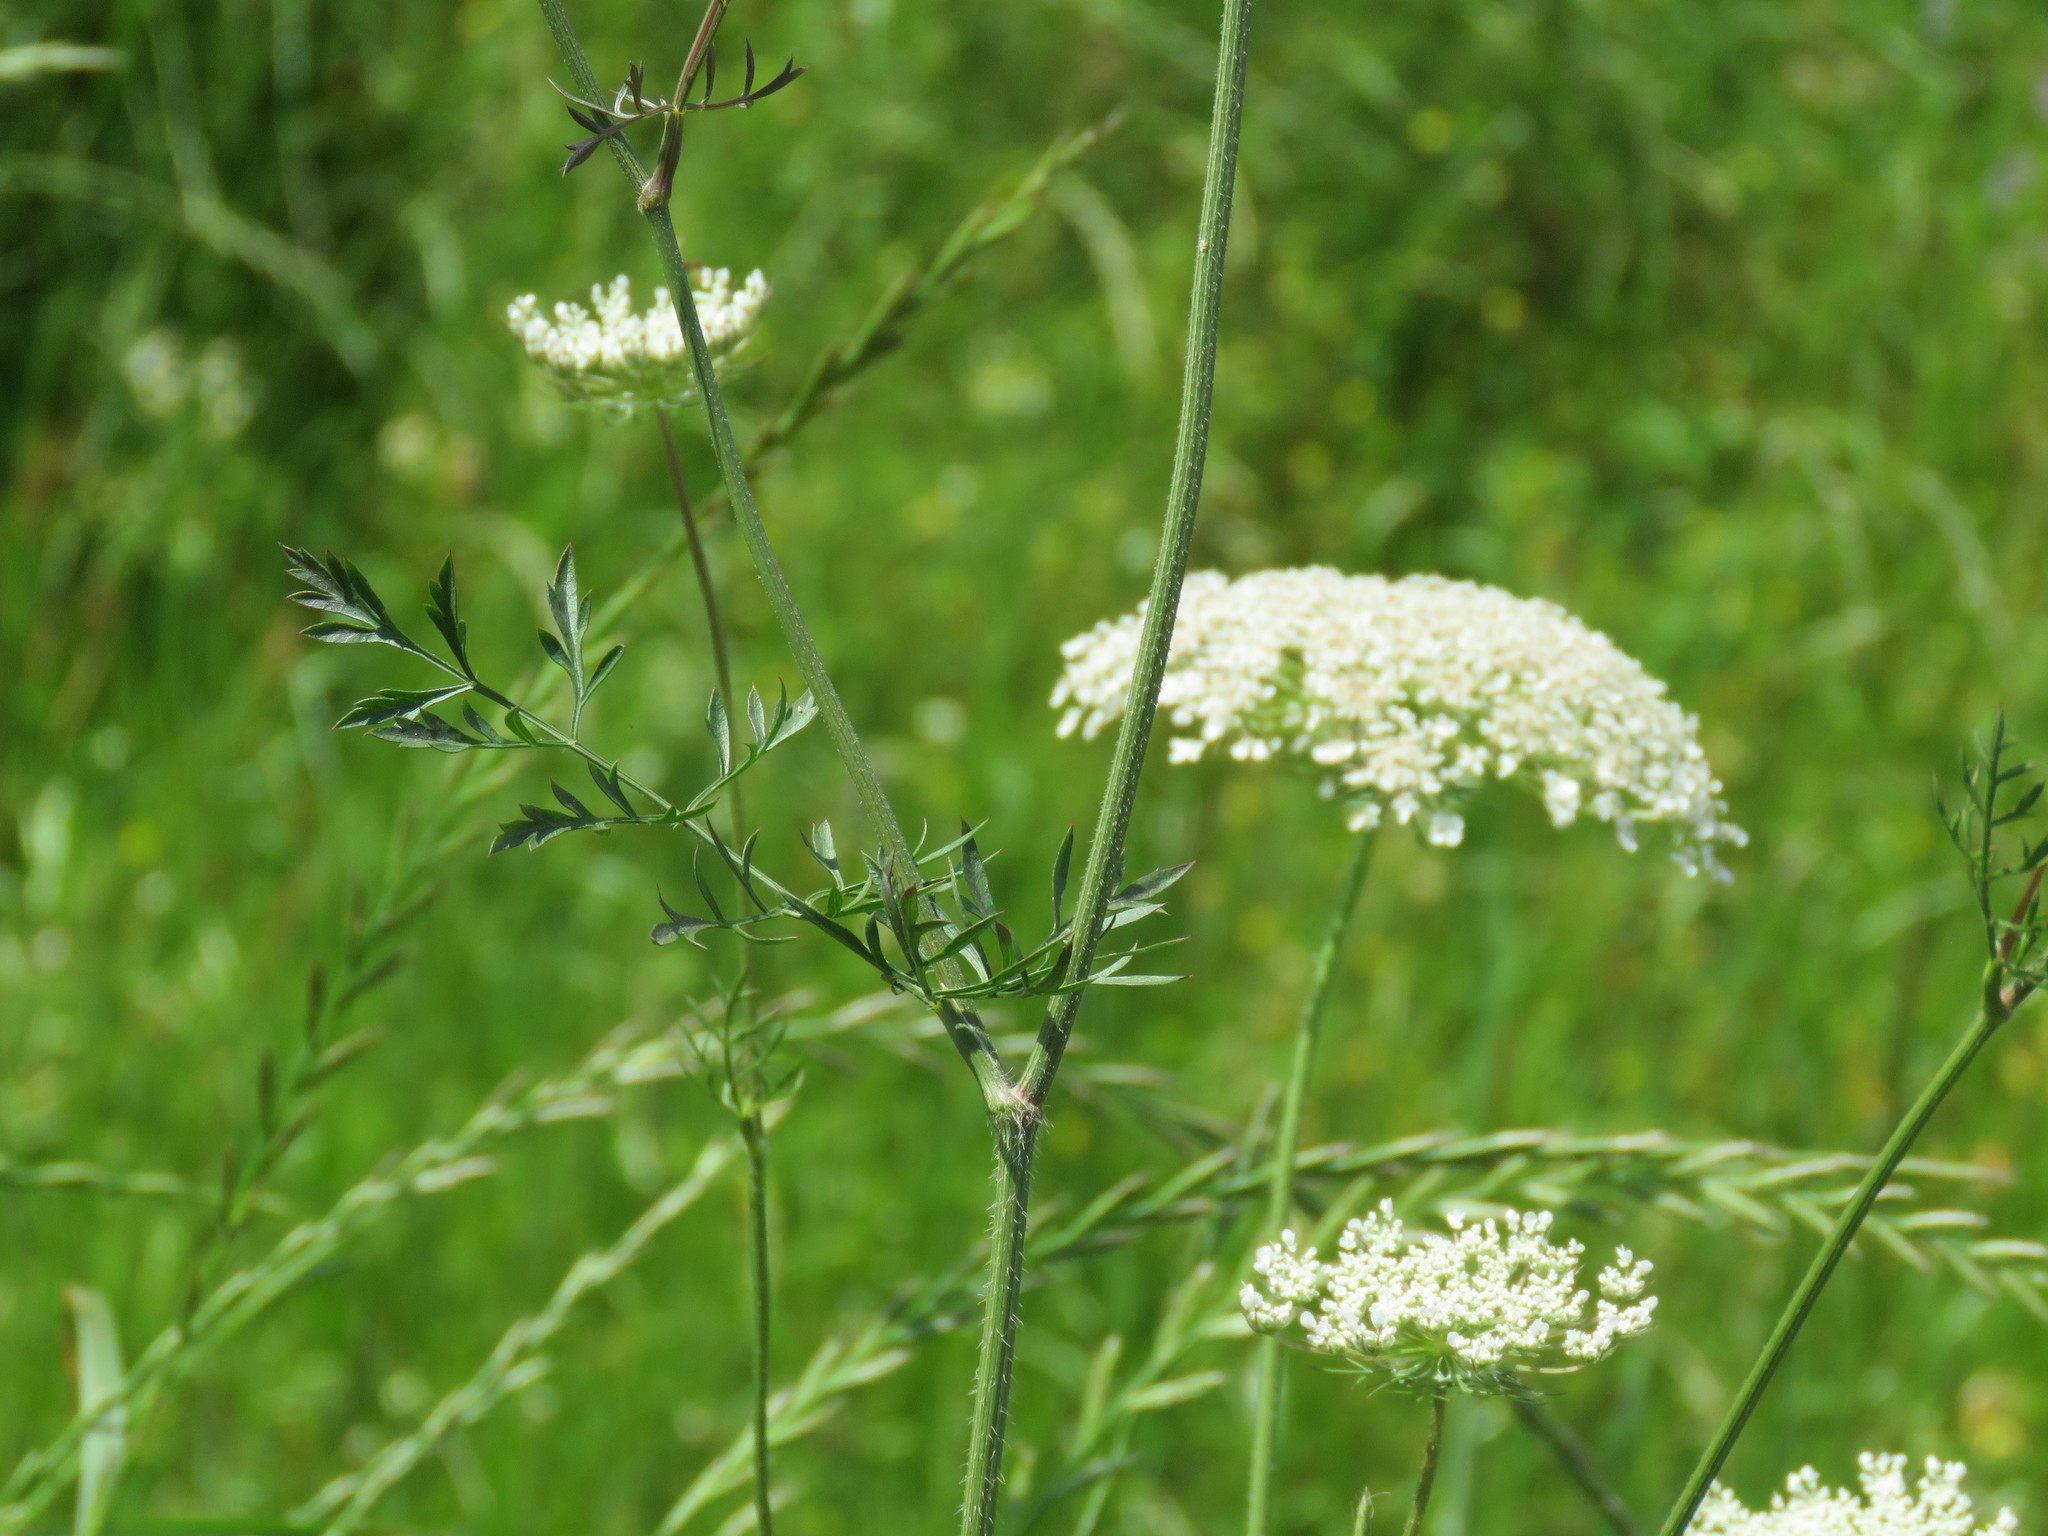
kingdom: Plantae
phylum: Tracheophyta
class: Magnoliopsida
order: Apiales
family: Apiaceae
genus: Daucus
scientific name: Daucus carota
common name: Wild carrot
